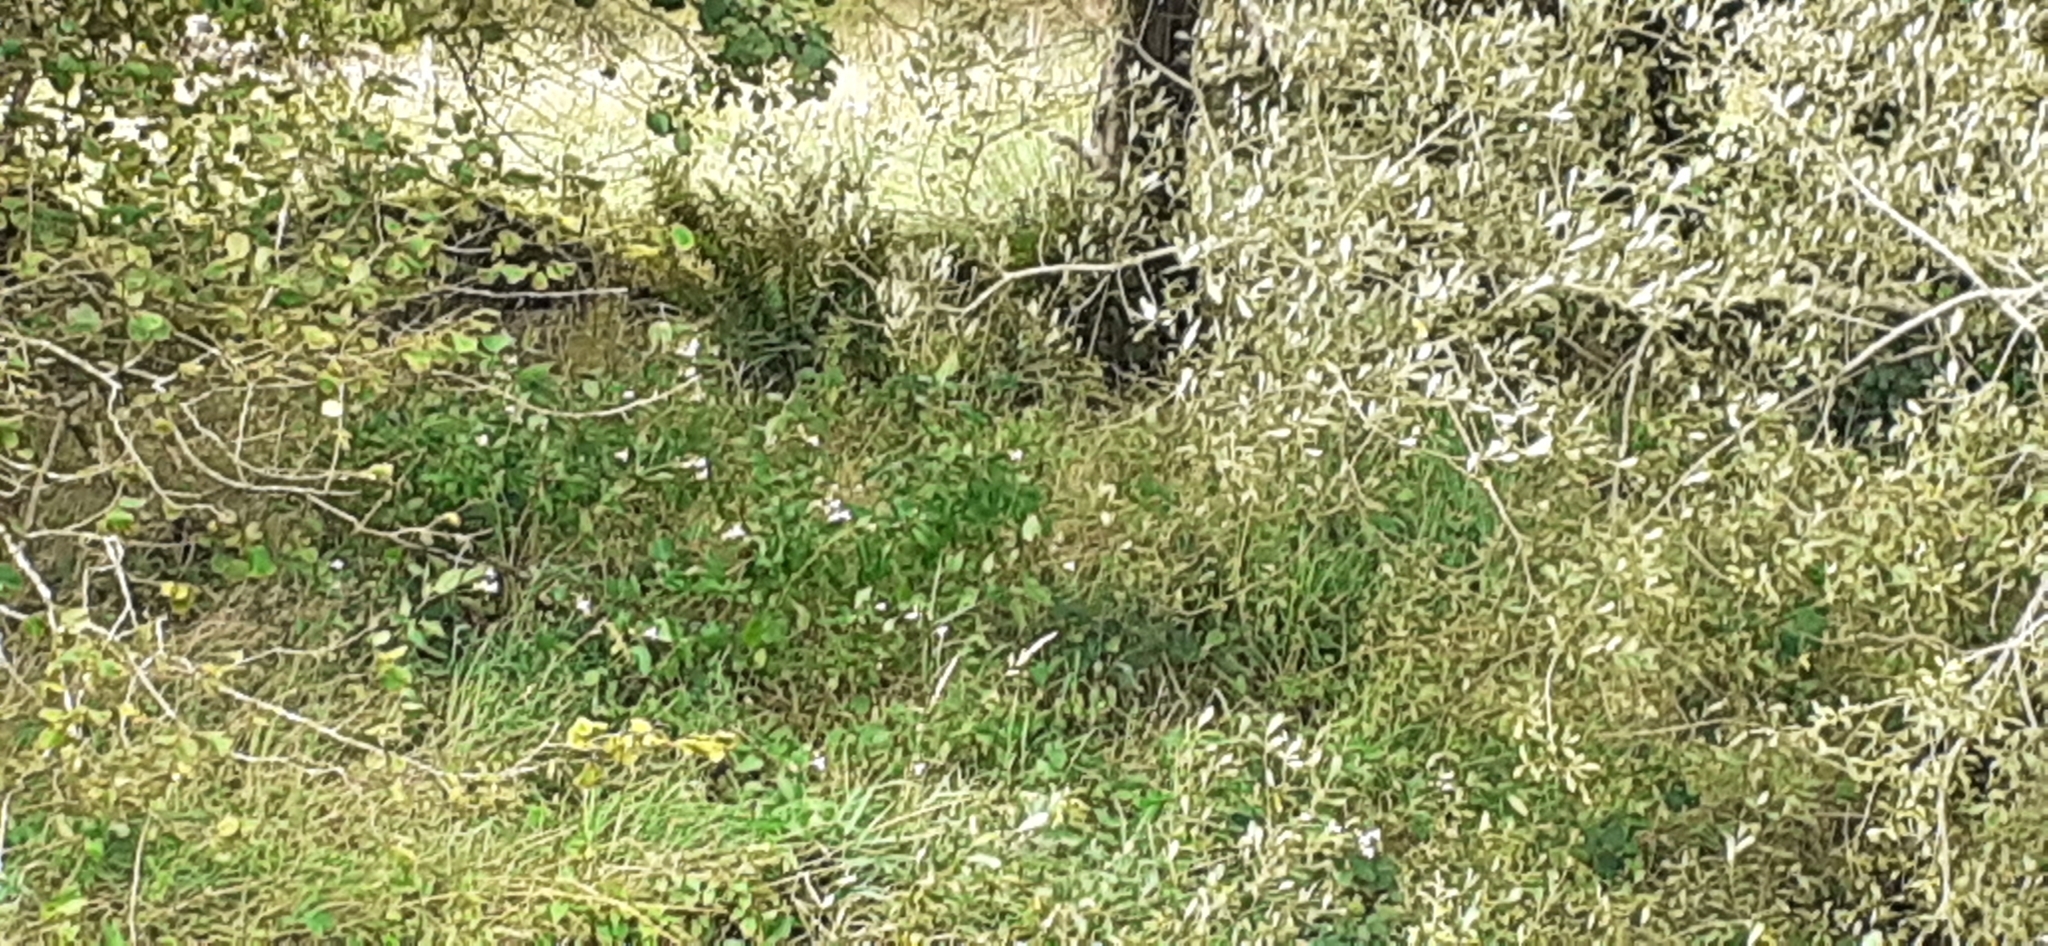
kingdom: Plantae
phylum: Tracheophyta
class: Magnoliopsida
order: Ericales
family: Balsaminaceae
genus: Impatiens
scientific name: Impatiens glandulifera
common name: Himalayan balsam
